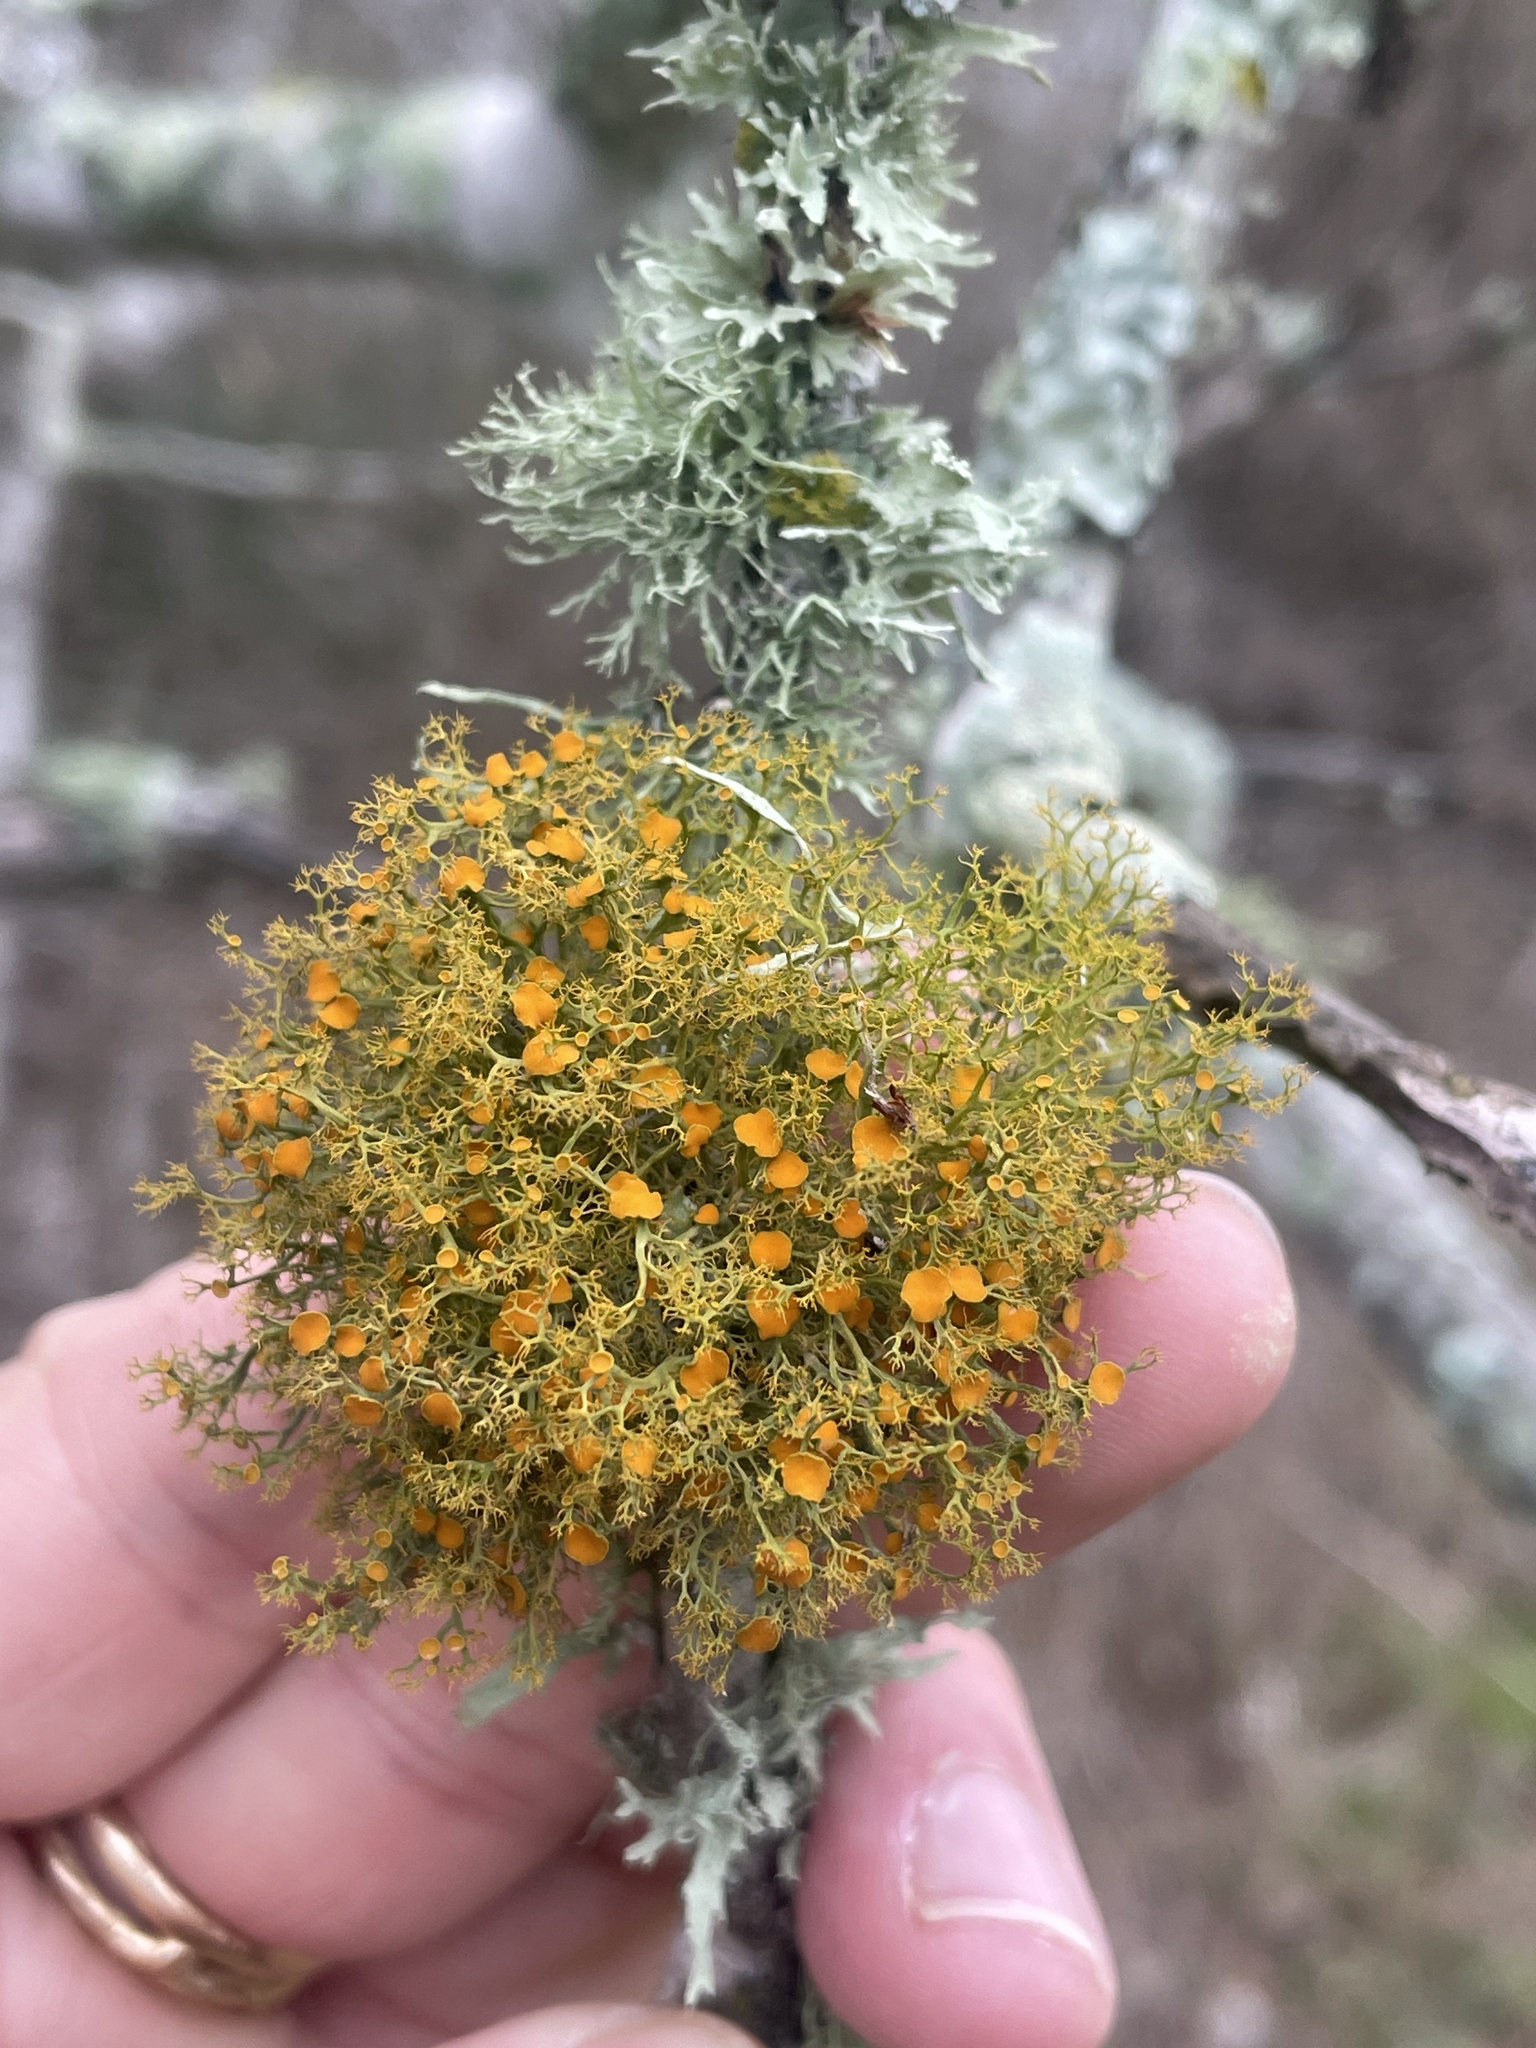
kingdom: Fungi
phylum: Ascomycota
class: Lecanoromycetes
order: Teloschistales
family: Teloschistaceae
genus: Teloschistes
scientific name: Teloschistes exilis
